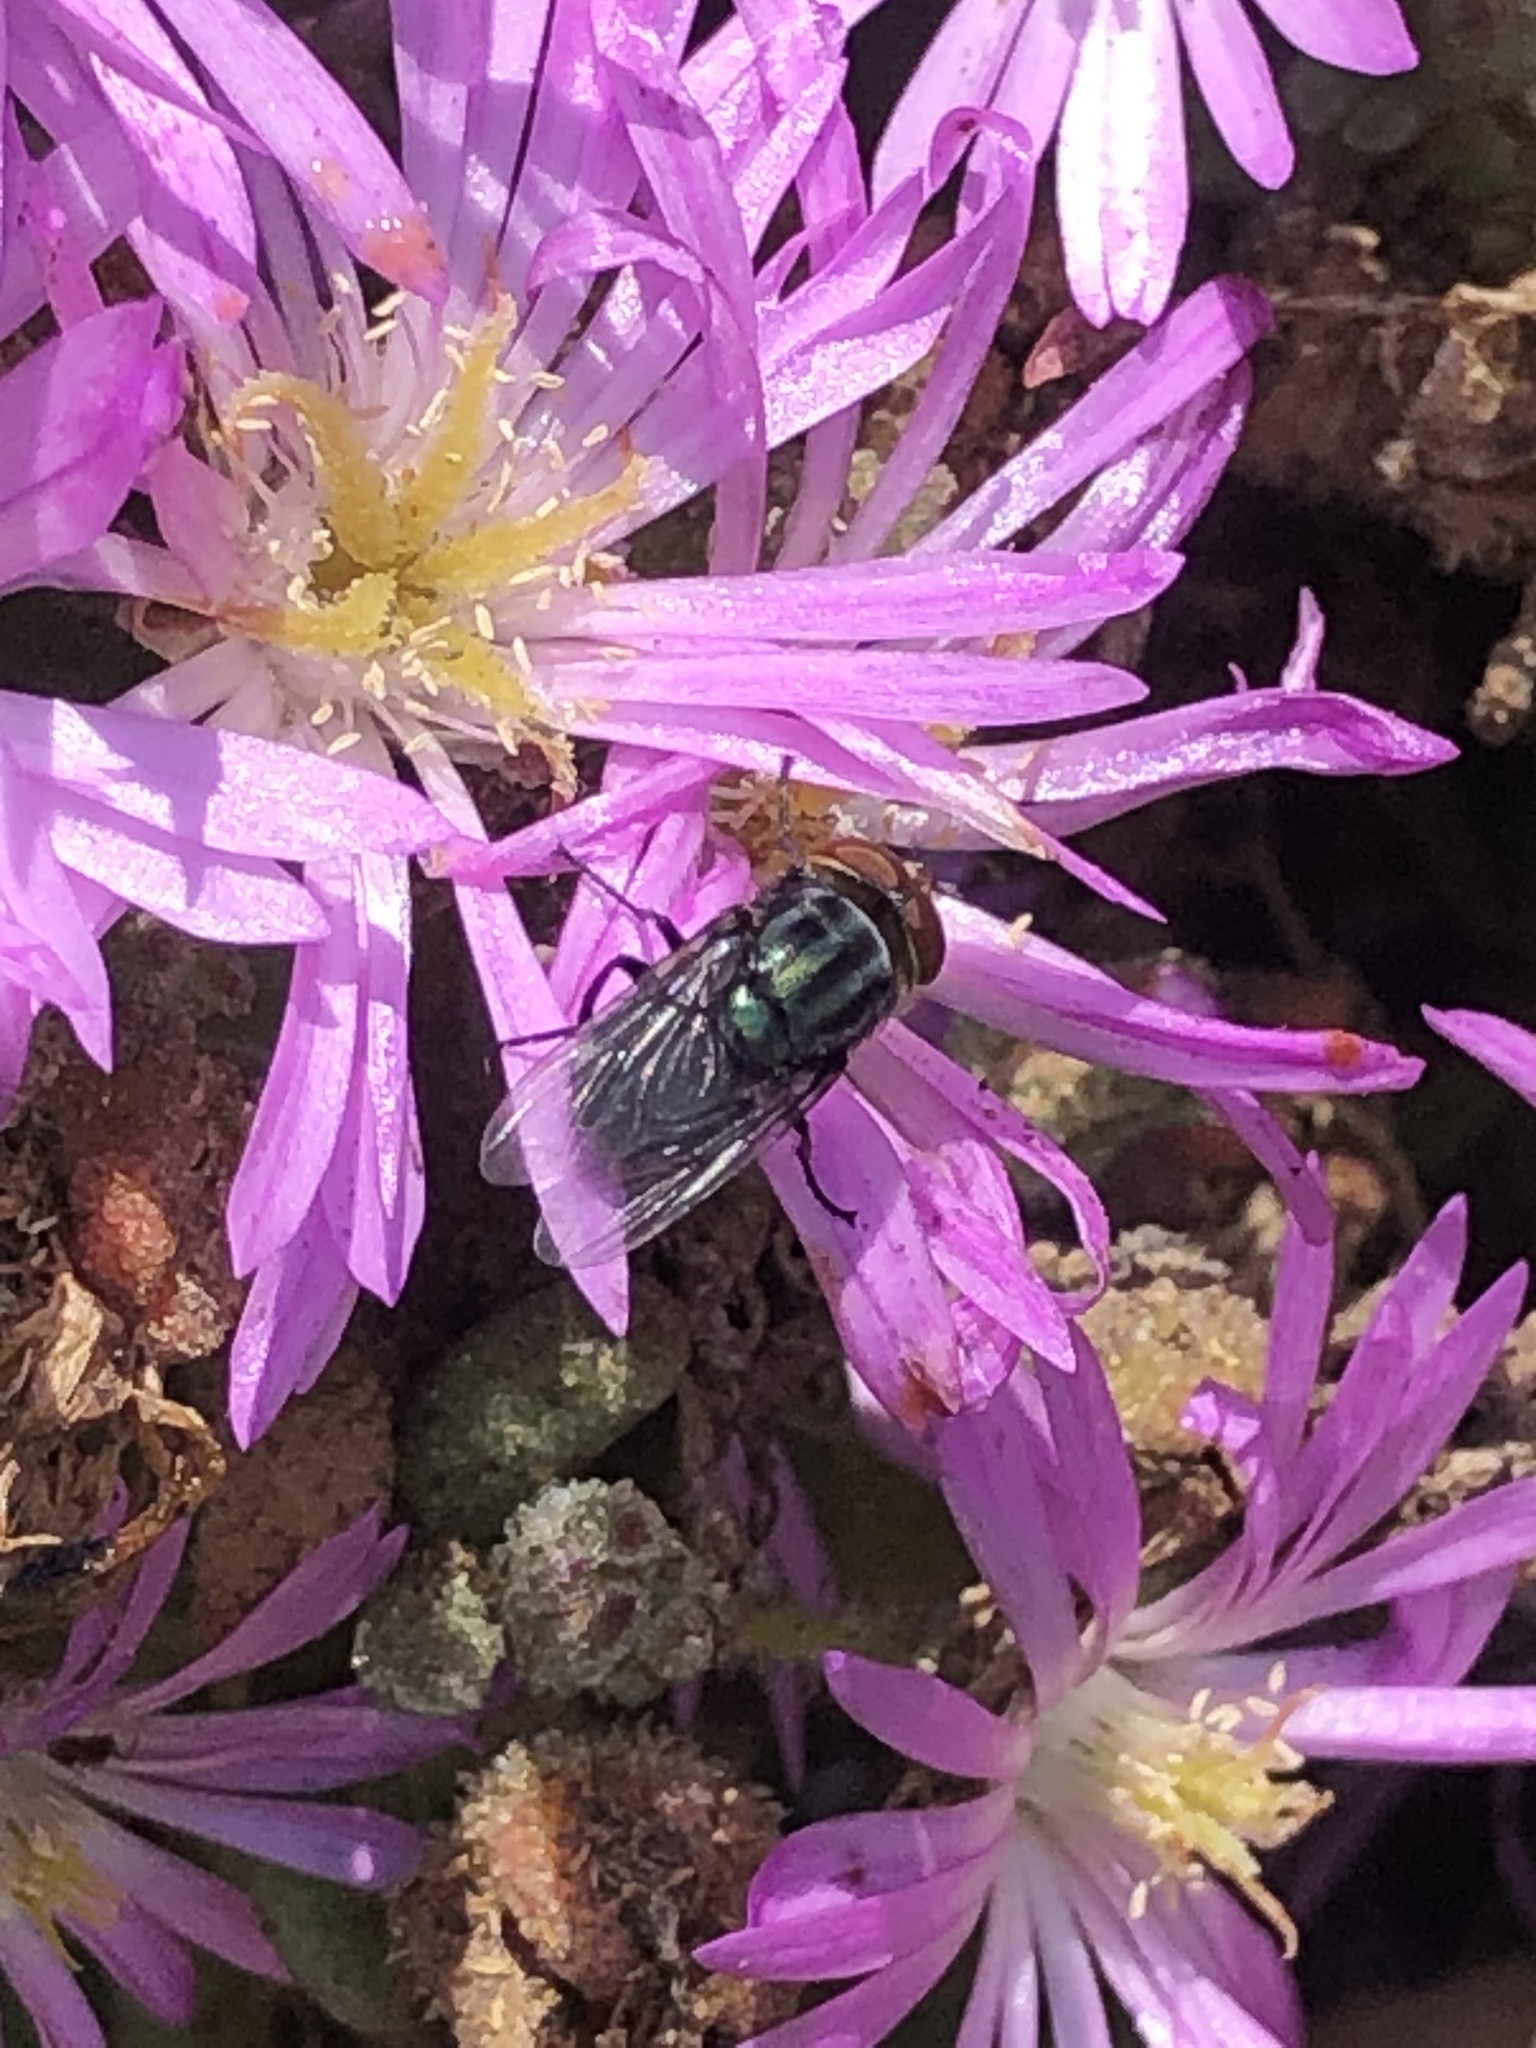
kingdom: Animalia
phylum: Arthropoda
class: Insecta
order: Diptera
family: Calliphoridae
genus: Cochliomyia
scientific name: Cochliomyia macellaria
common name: Secondary screwworm
